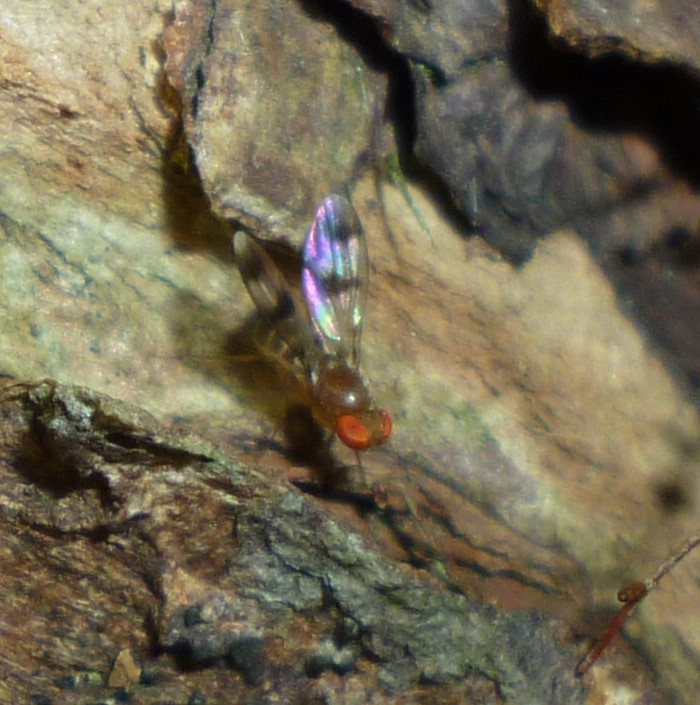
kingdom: Animalia
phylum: Arthropoda
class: Insecta
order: Diptera
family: Drosophilidae
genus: Chymomyza
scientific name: Chymomyza amoena
